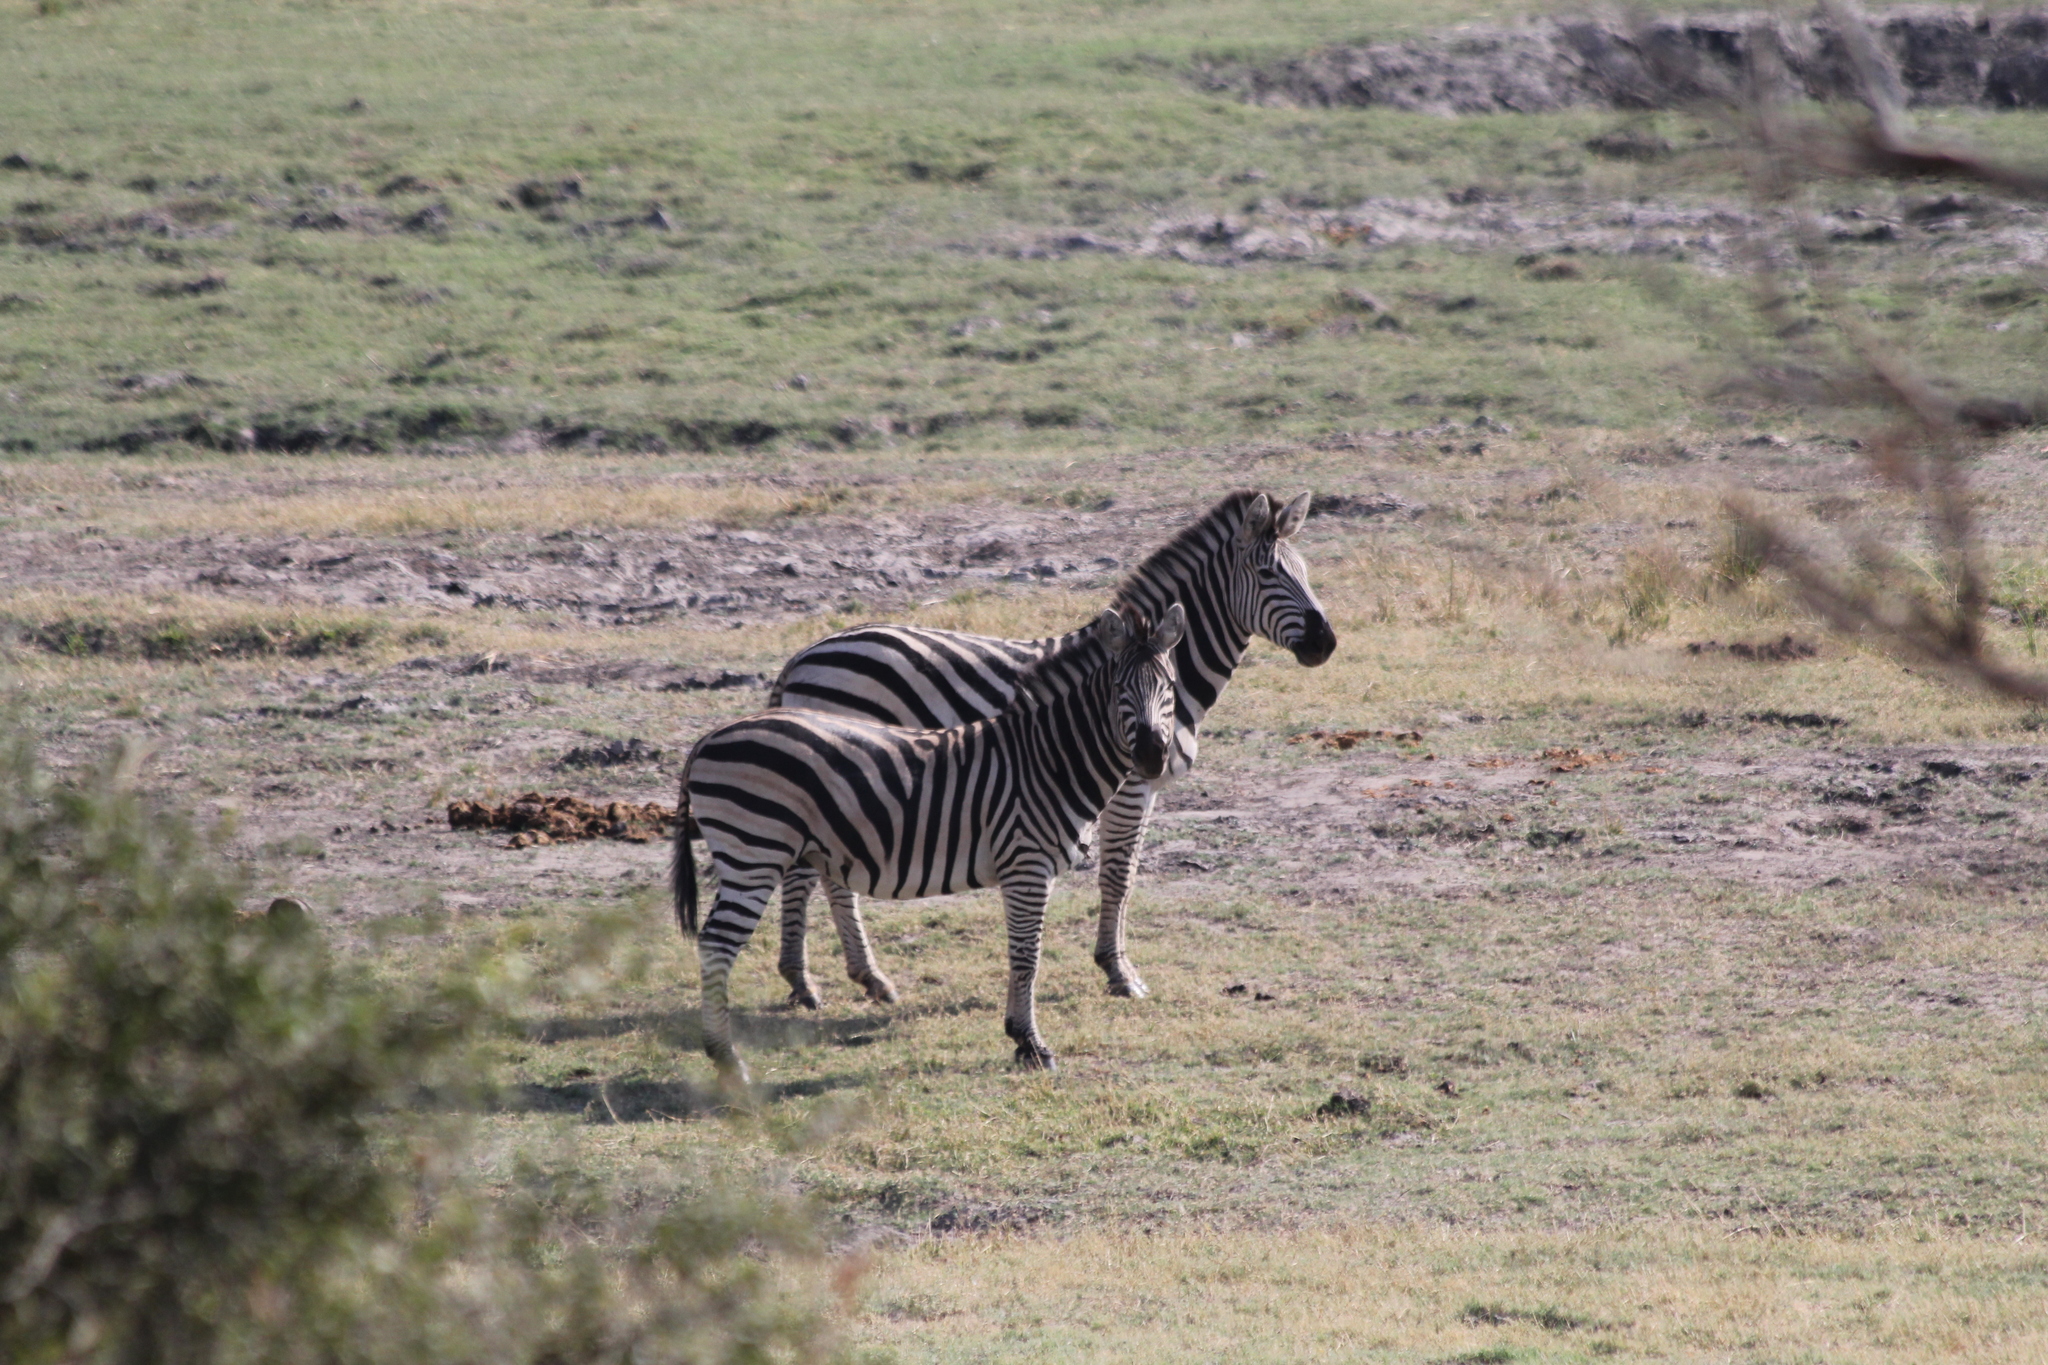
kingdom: Animalia
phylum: Chordata
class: Mammalia
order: Perissodactyla
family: Equidae
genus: Equus
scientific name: Equus quagga
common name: Plains zebra
